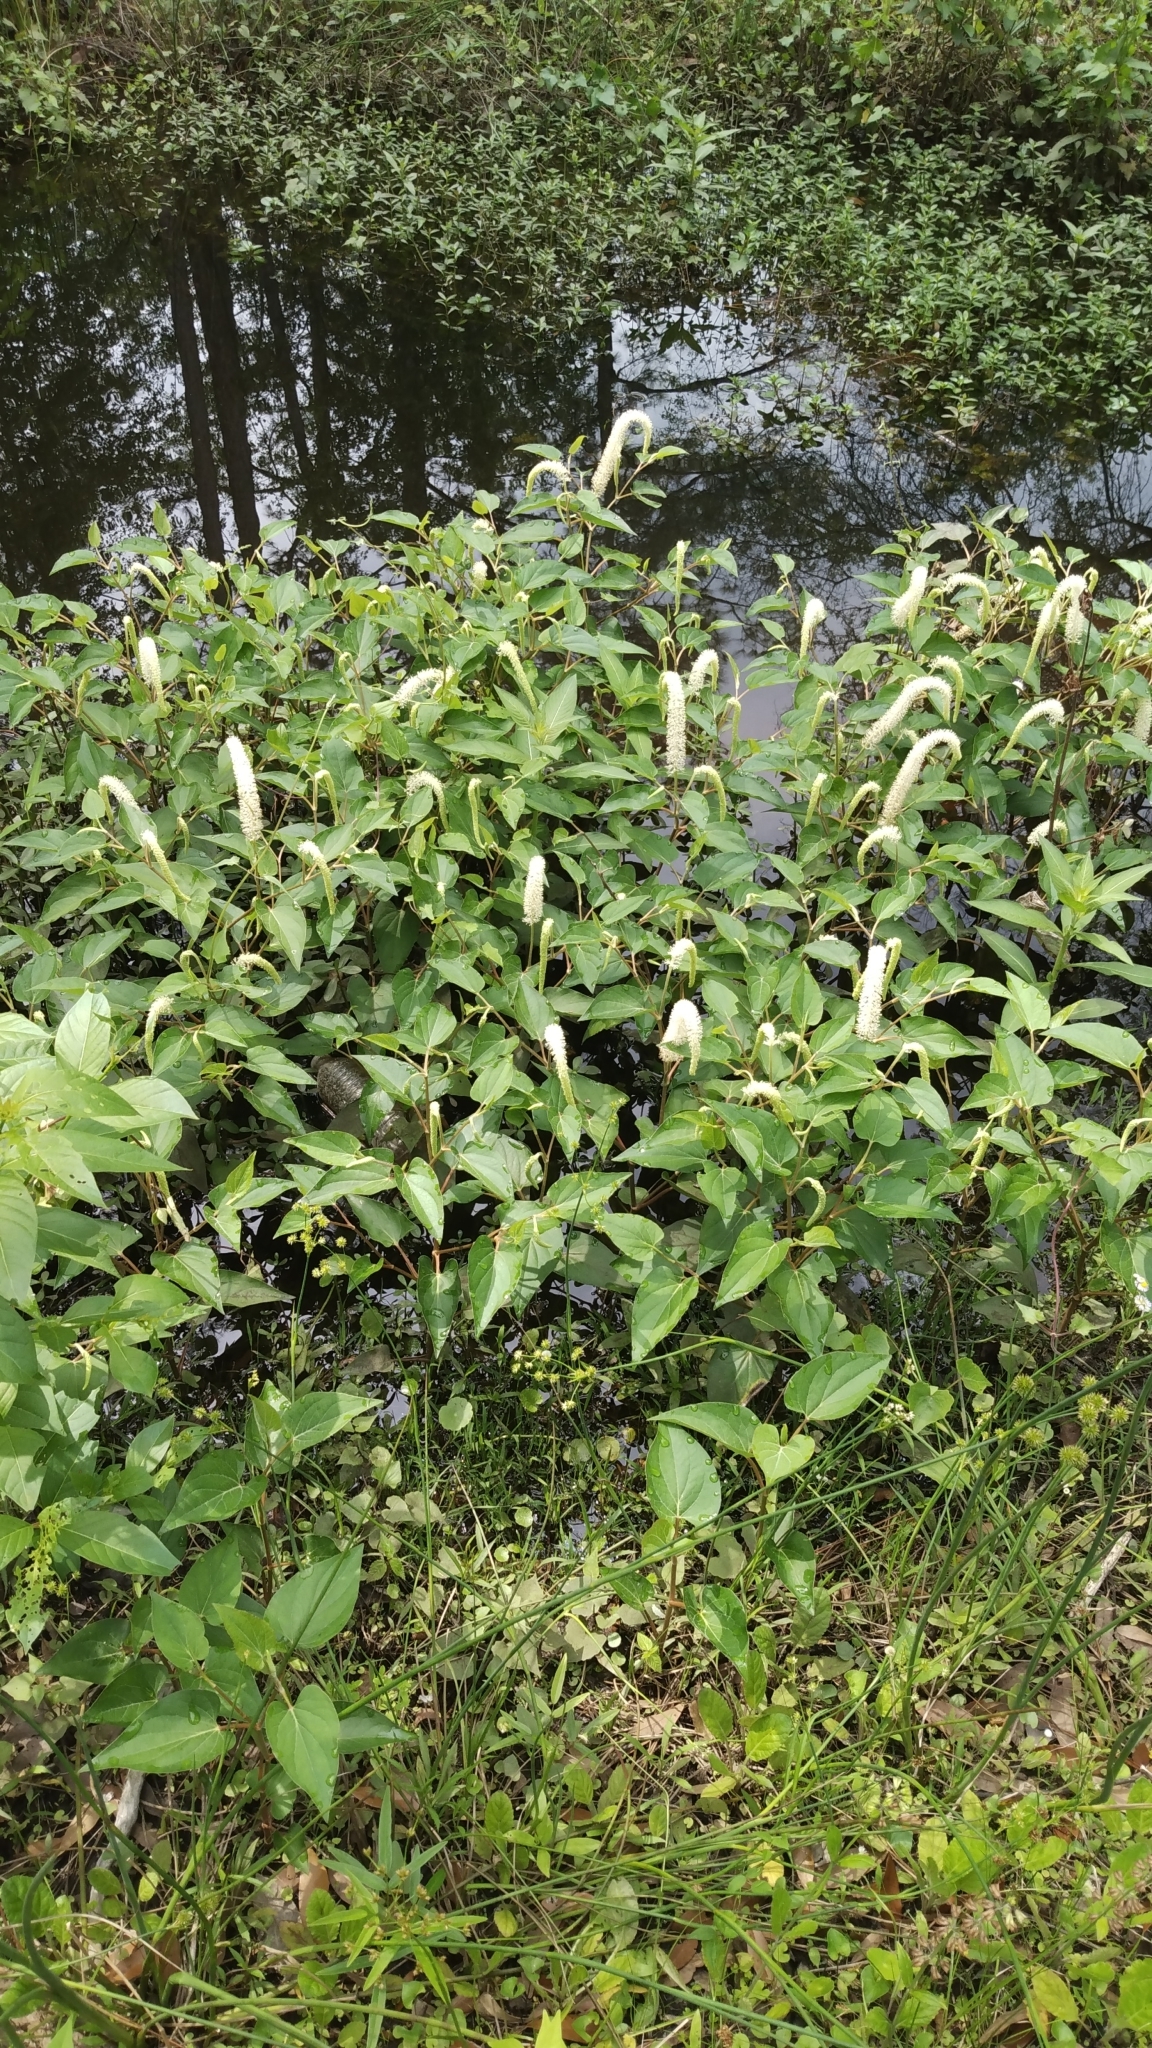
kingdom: Plantae
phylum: Tracheophyta
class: Magnoliopsida
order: Piperales
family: Saururaceae
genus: Saururus
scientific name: Saururus cernuus
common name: Lizard's-tail
